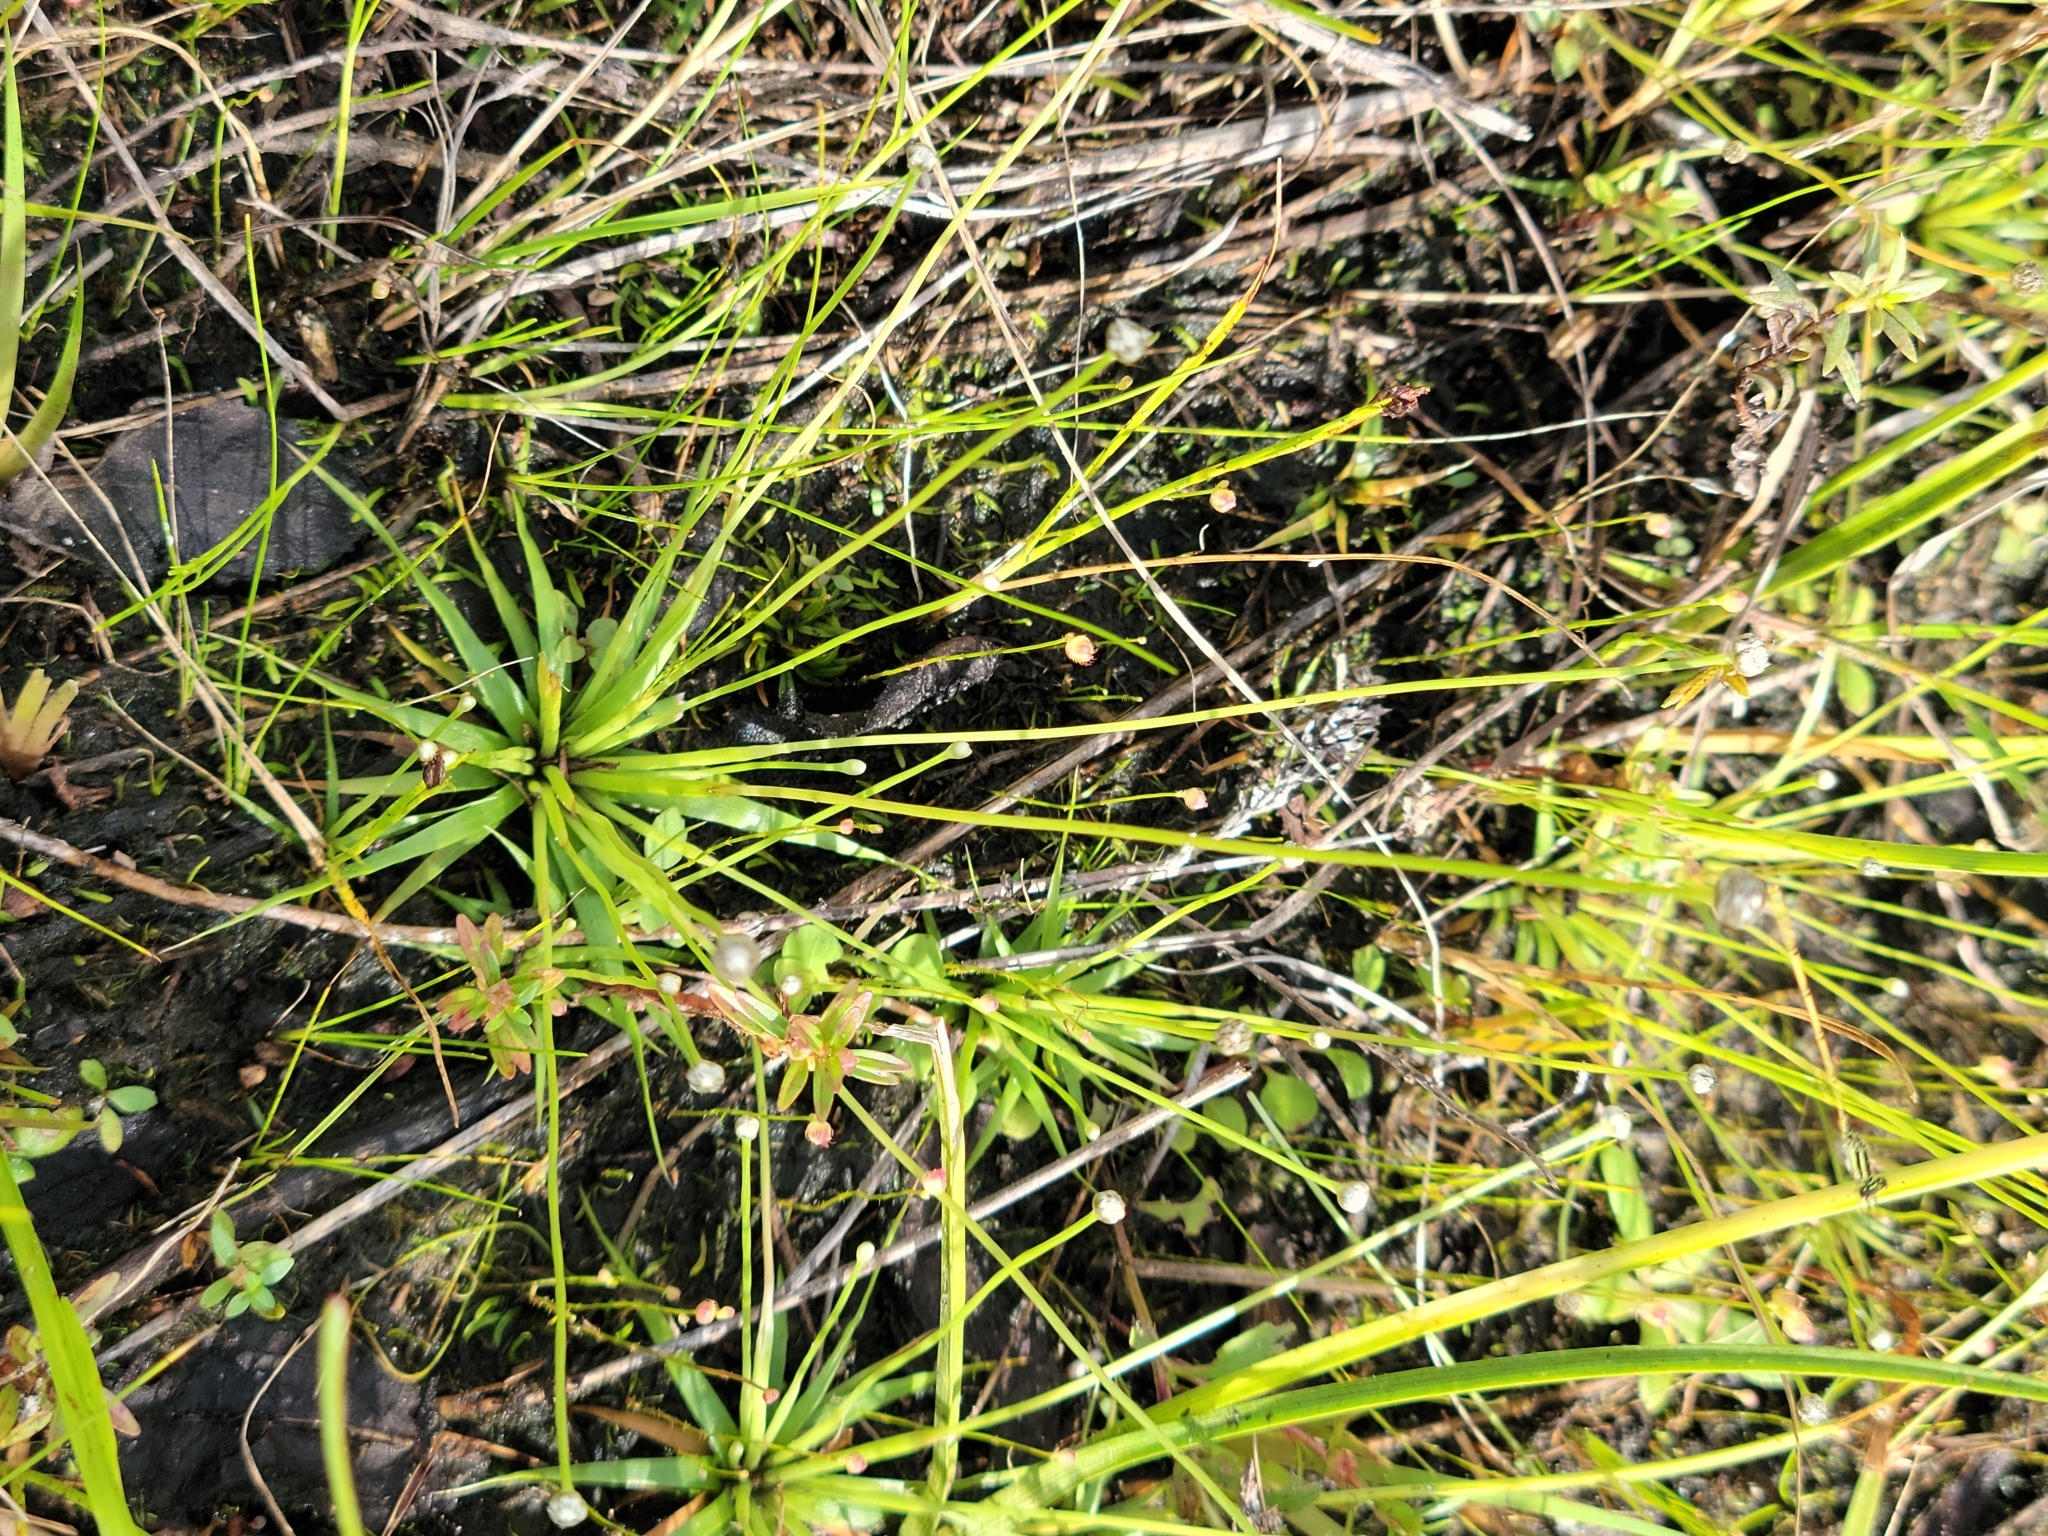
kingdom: Plantae
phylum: Tracheophyta
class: Liliopsida
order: Poales
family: Eriocaulaceae
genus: Eriocaulon
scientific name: Eriocaulon ravenelii
